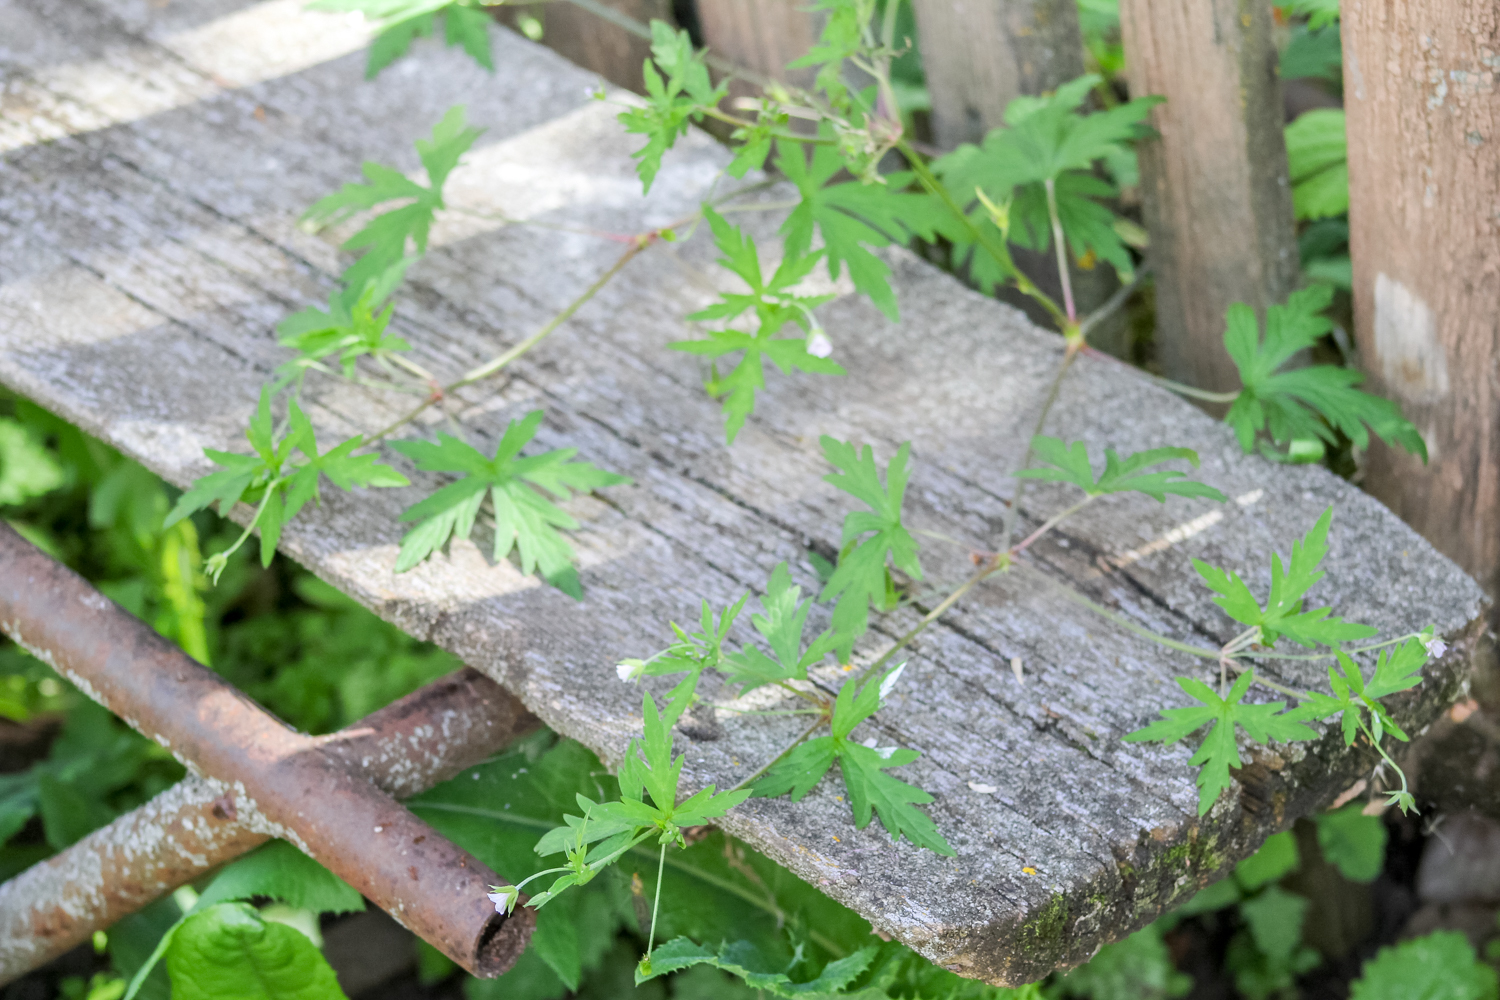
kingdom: Plantae
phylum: Tracheophyta
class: Magnoliopsida
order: Geraniales
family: Geraniaceae
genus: Geranium
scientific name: Geranium sibiricum
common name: Siberian crane's-bill
